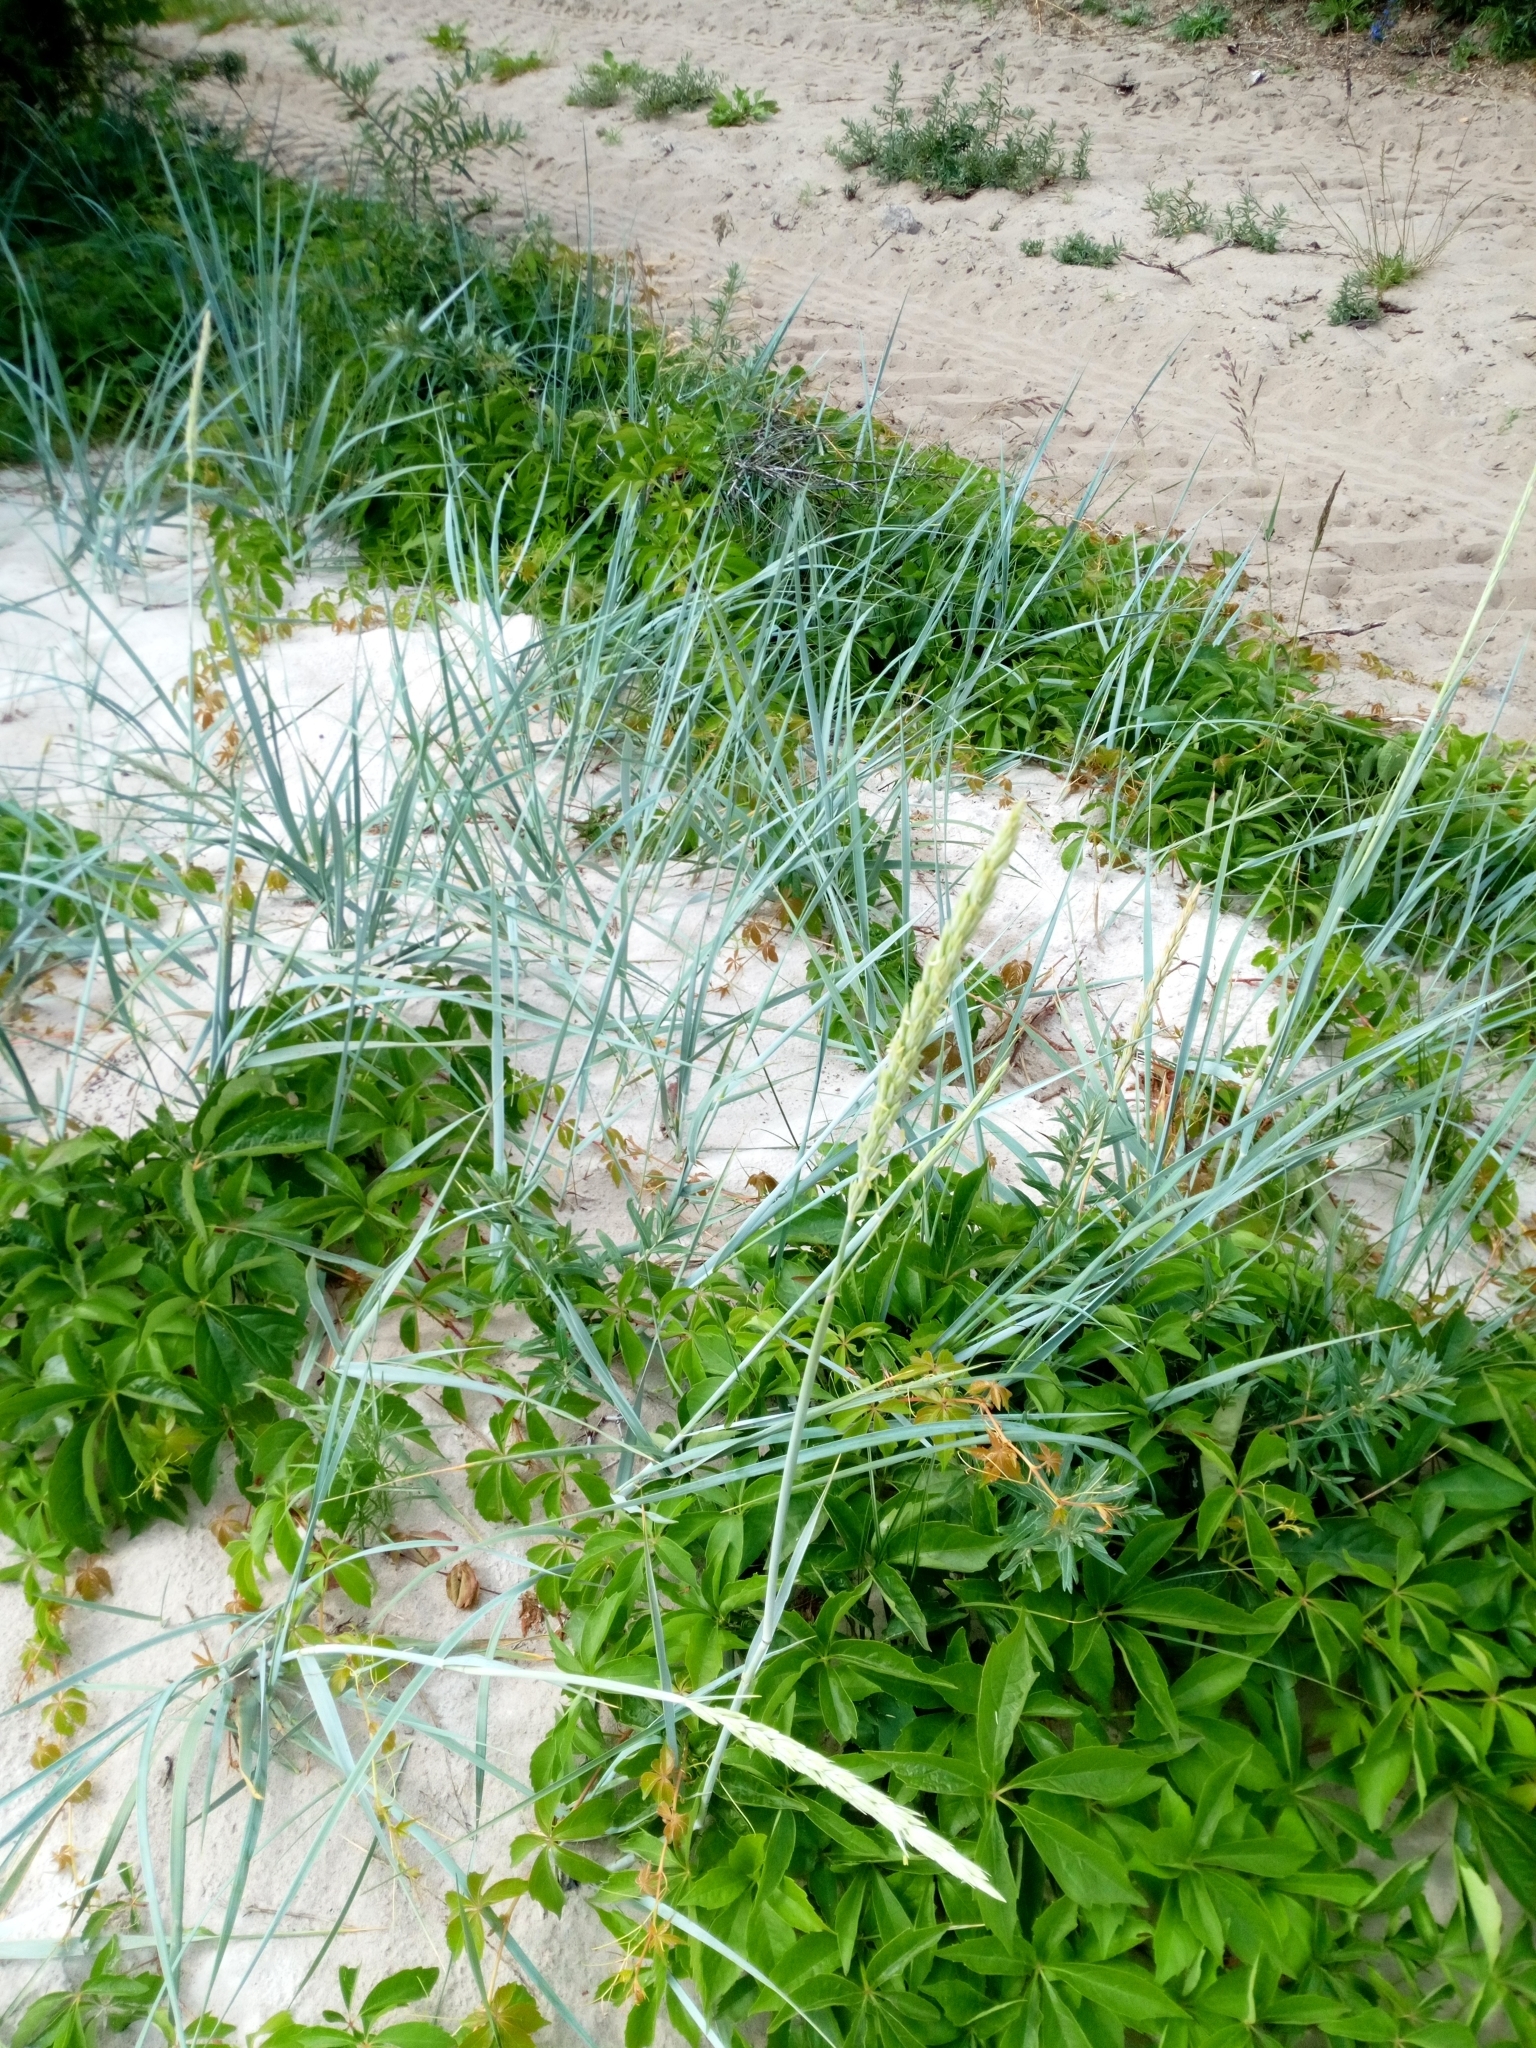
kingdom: Plantae
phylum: Tracheophyta
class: Liliopsida
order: Poales
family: Poaceae
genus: Leymus
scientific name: Leymus arenarius
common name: Lyme-grass
